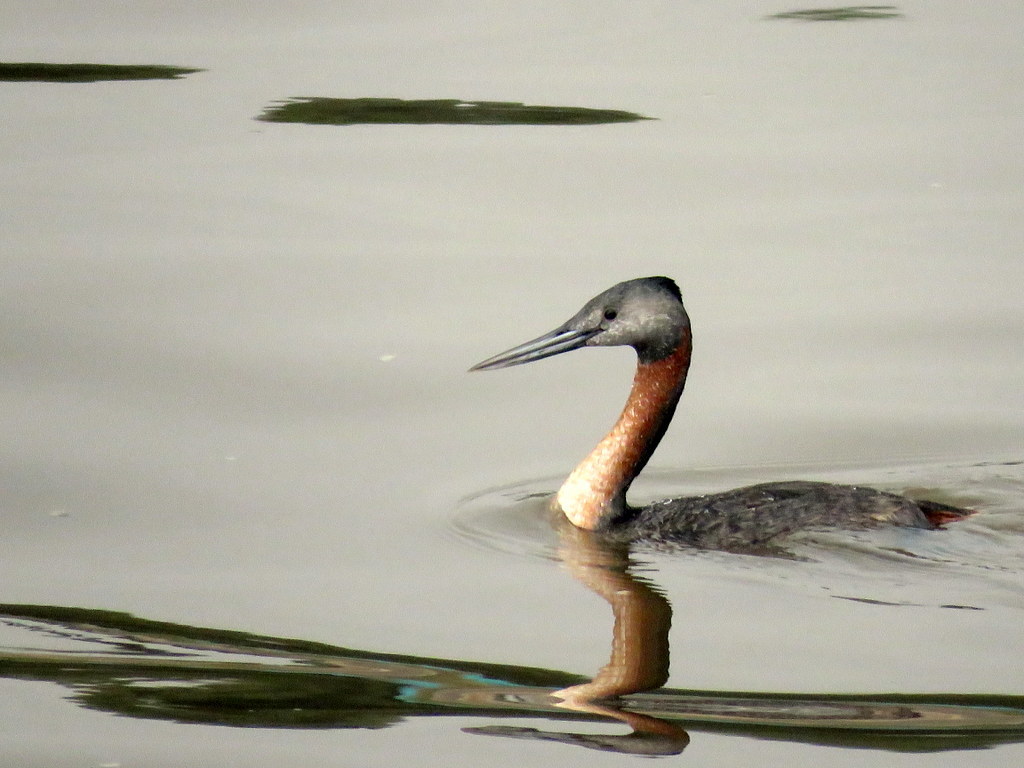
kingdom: Animalia
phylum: Chordata
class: Aves
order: Podicipediformes
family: Podicipedidae
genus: Podiceps
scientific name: Podiceps major
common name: Great grebe
